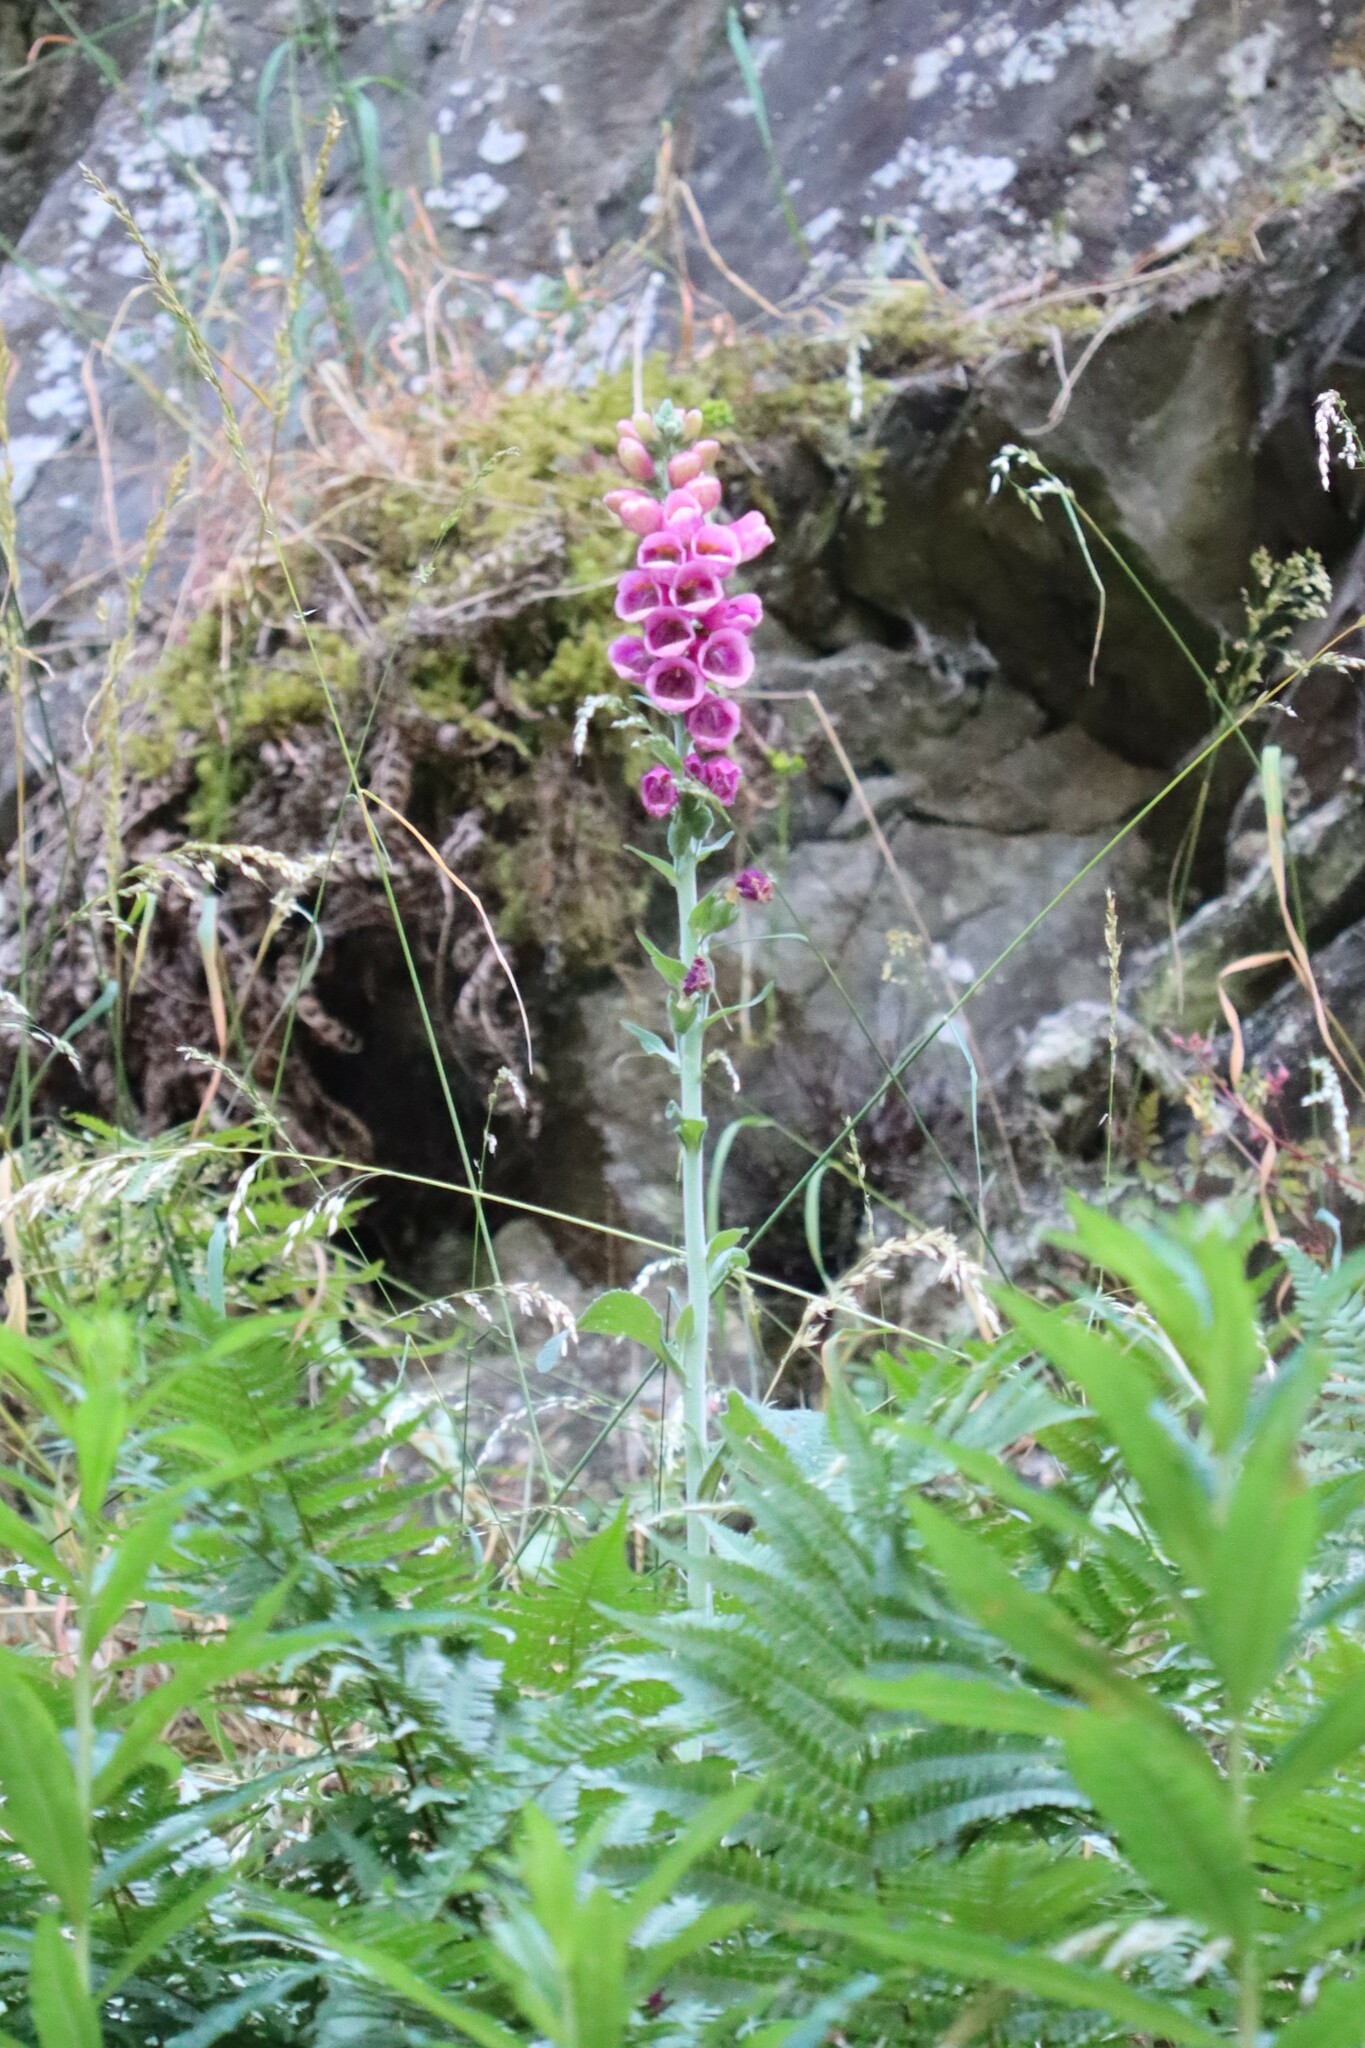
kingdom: Plantae
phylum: Tracheophyta
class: Magnoliopsida
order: Lamiales
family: Plantaginaceae
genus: Digitalis
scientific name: Digitalis purpurea
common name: Foxglove
